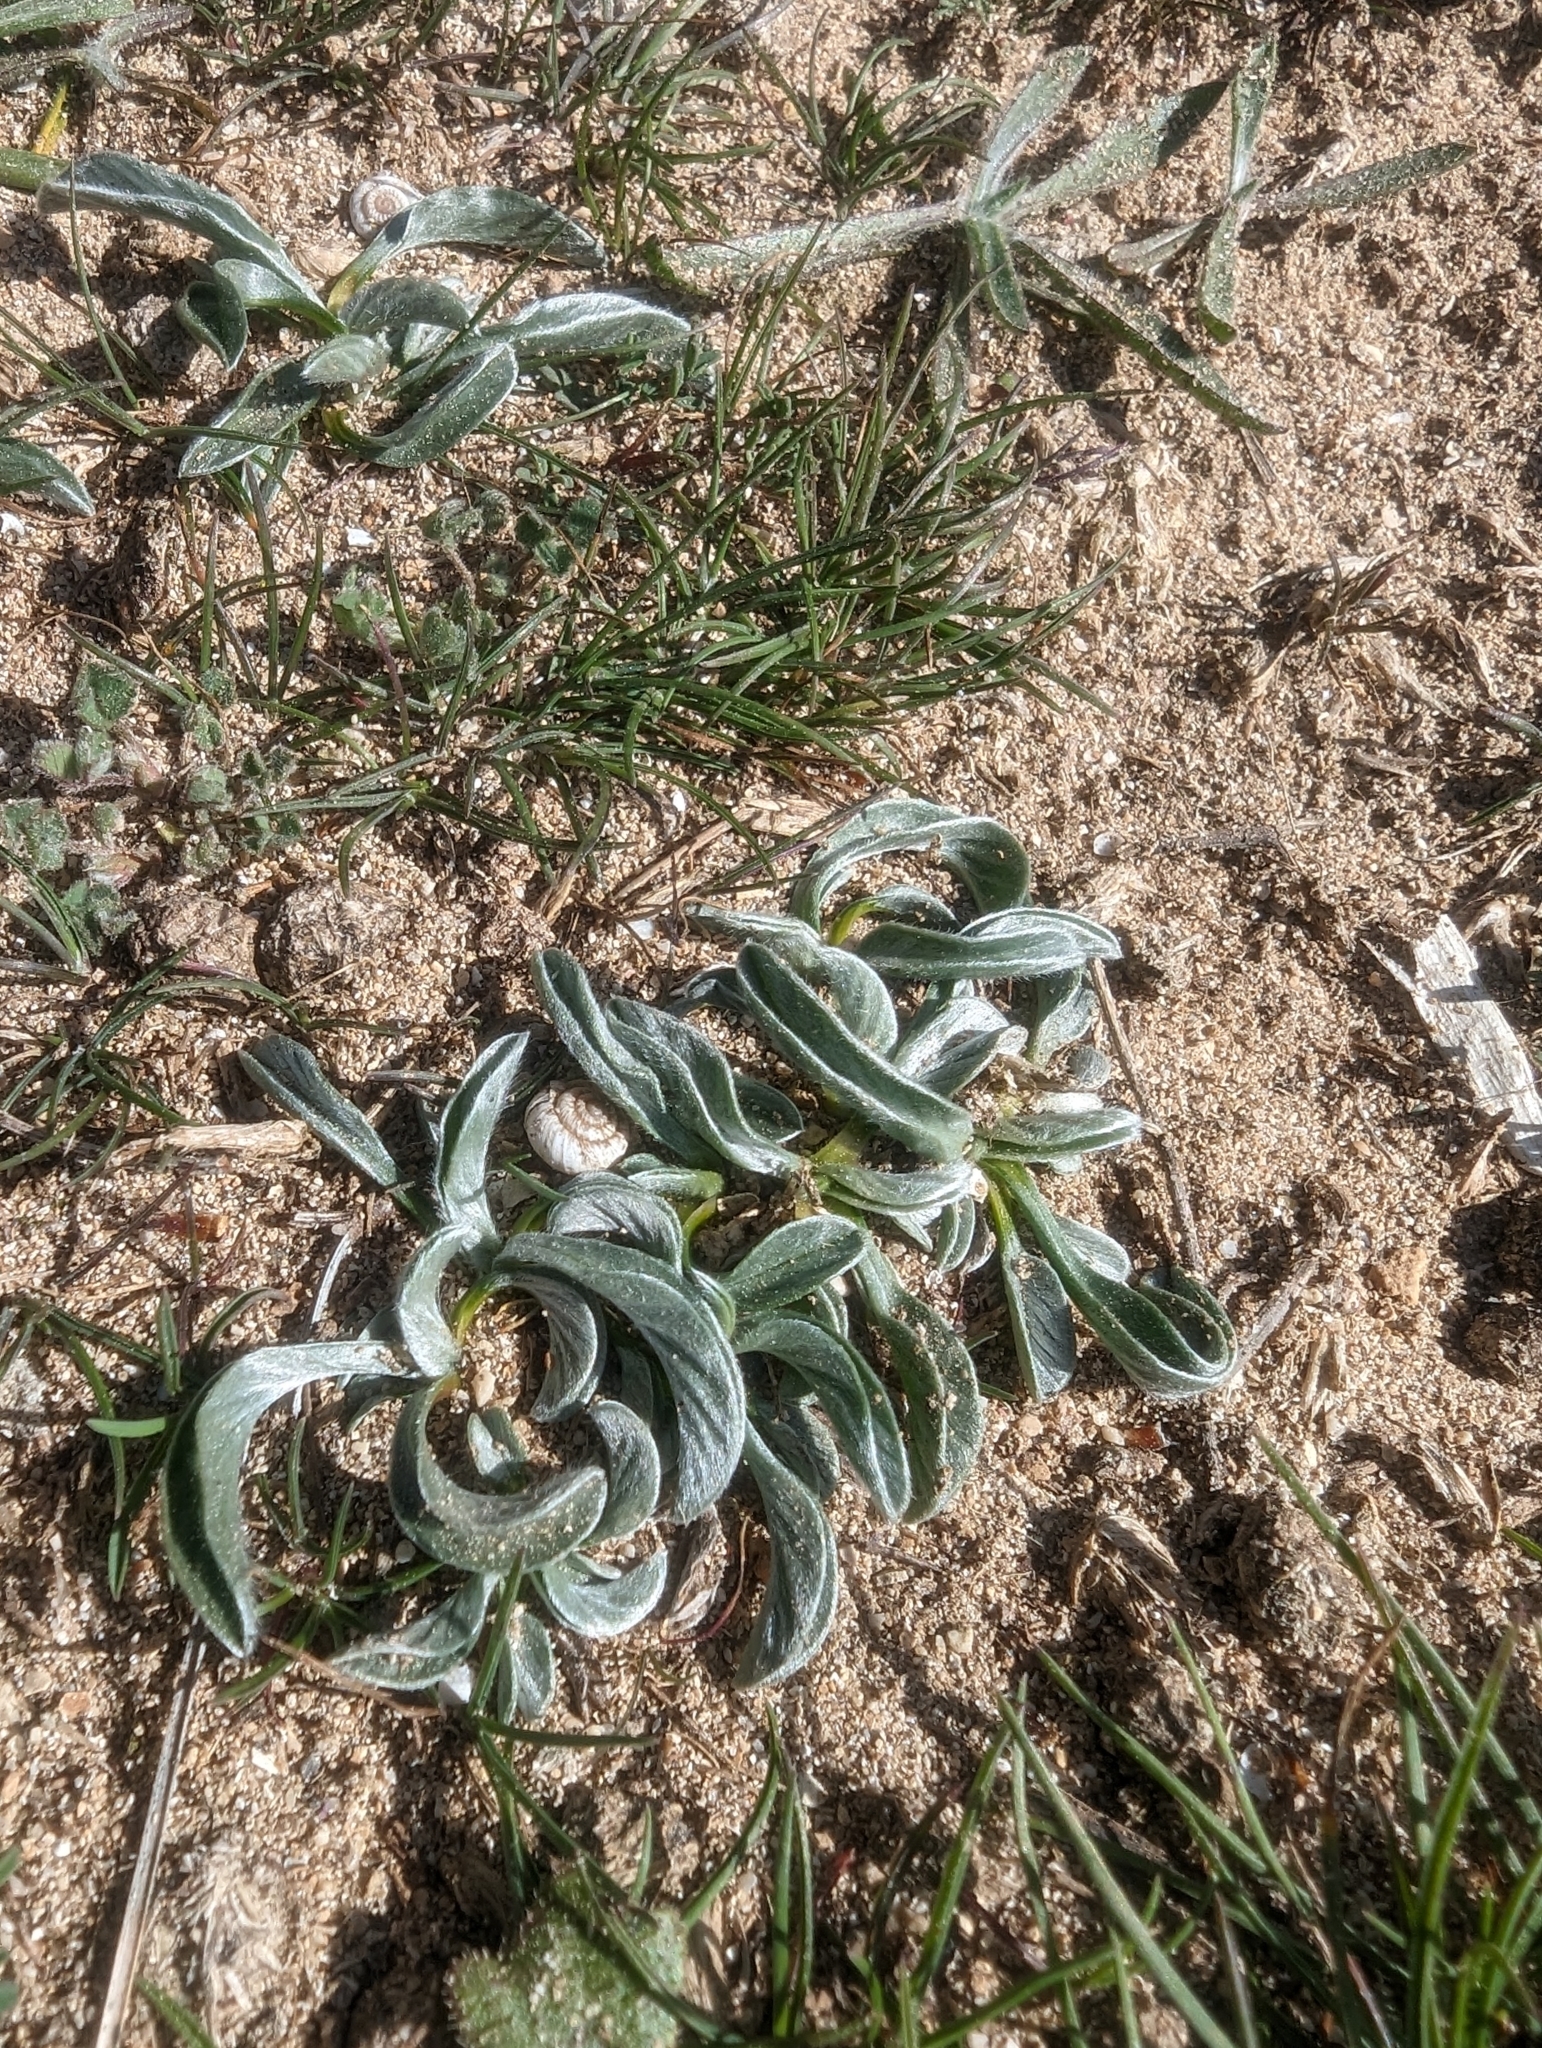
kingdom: Plantae
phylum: Tracheophyta
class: Magnoliopsida
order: Solanales
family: Convolvulaceae
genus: Convolvulus
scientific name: Convolvulus lineatus
